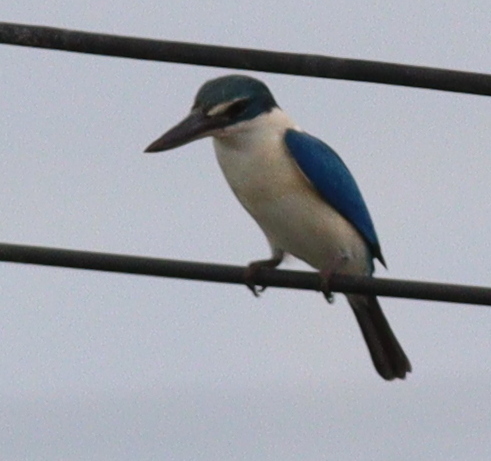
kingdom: Animalia
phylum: Chordata
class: Aves
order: Coraciiformes
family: Alcedinidae
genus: Todiramphus
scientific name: Todiramphus chloris
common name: Collared kingfisher
